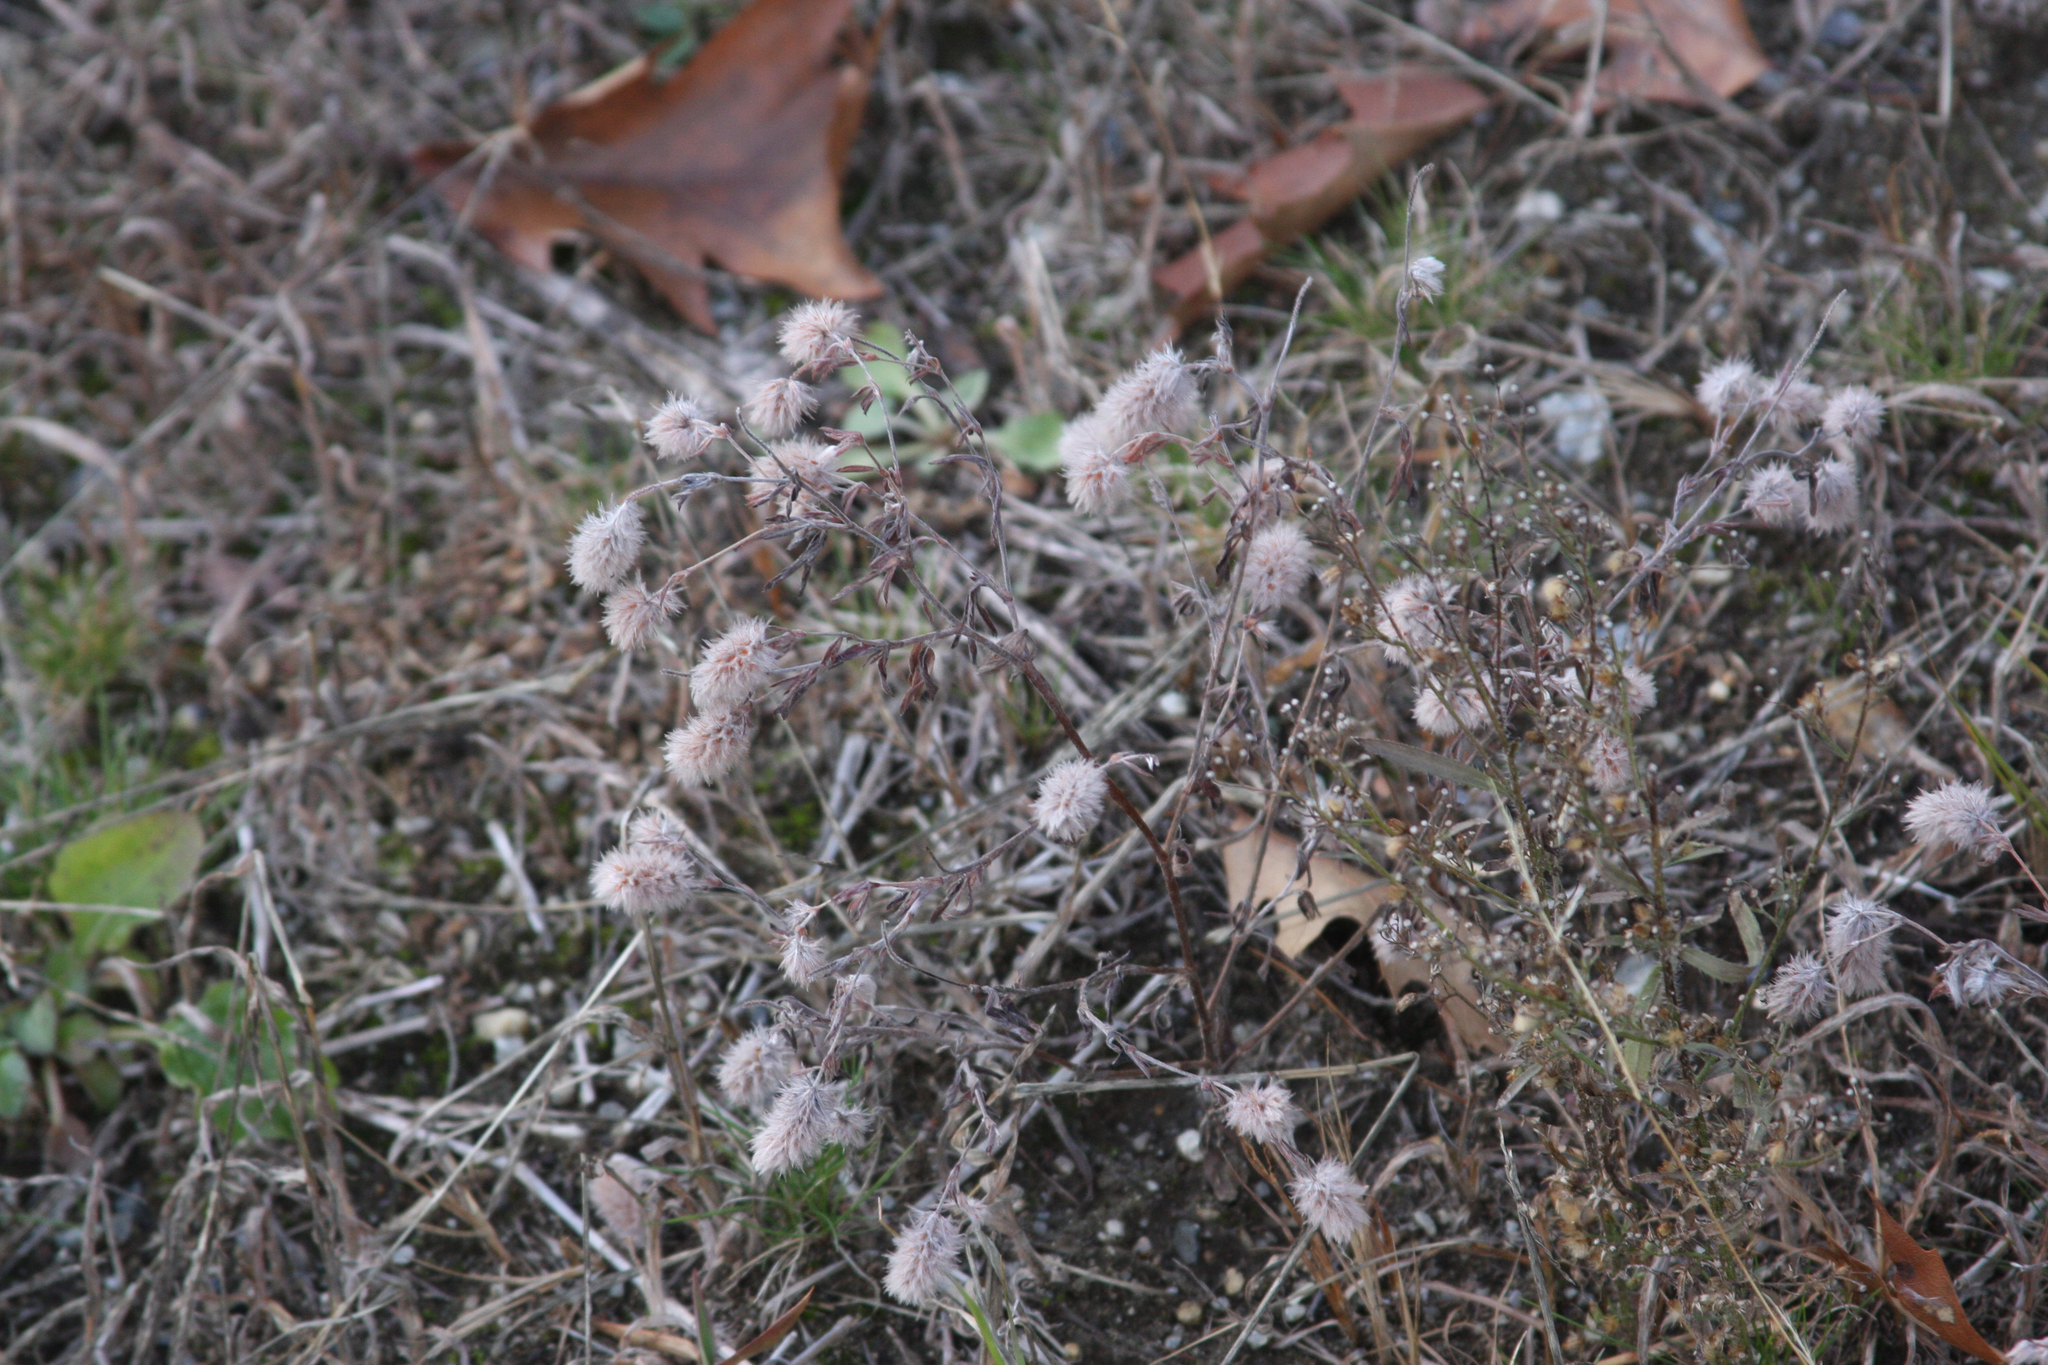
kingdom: Plantae
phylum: Tracheophyta
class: Magnoliopsida
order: Fabales
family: Fabaceae
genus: Trifolium
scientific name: Trifolium arvense
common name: Hare's-foot clover
